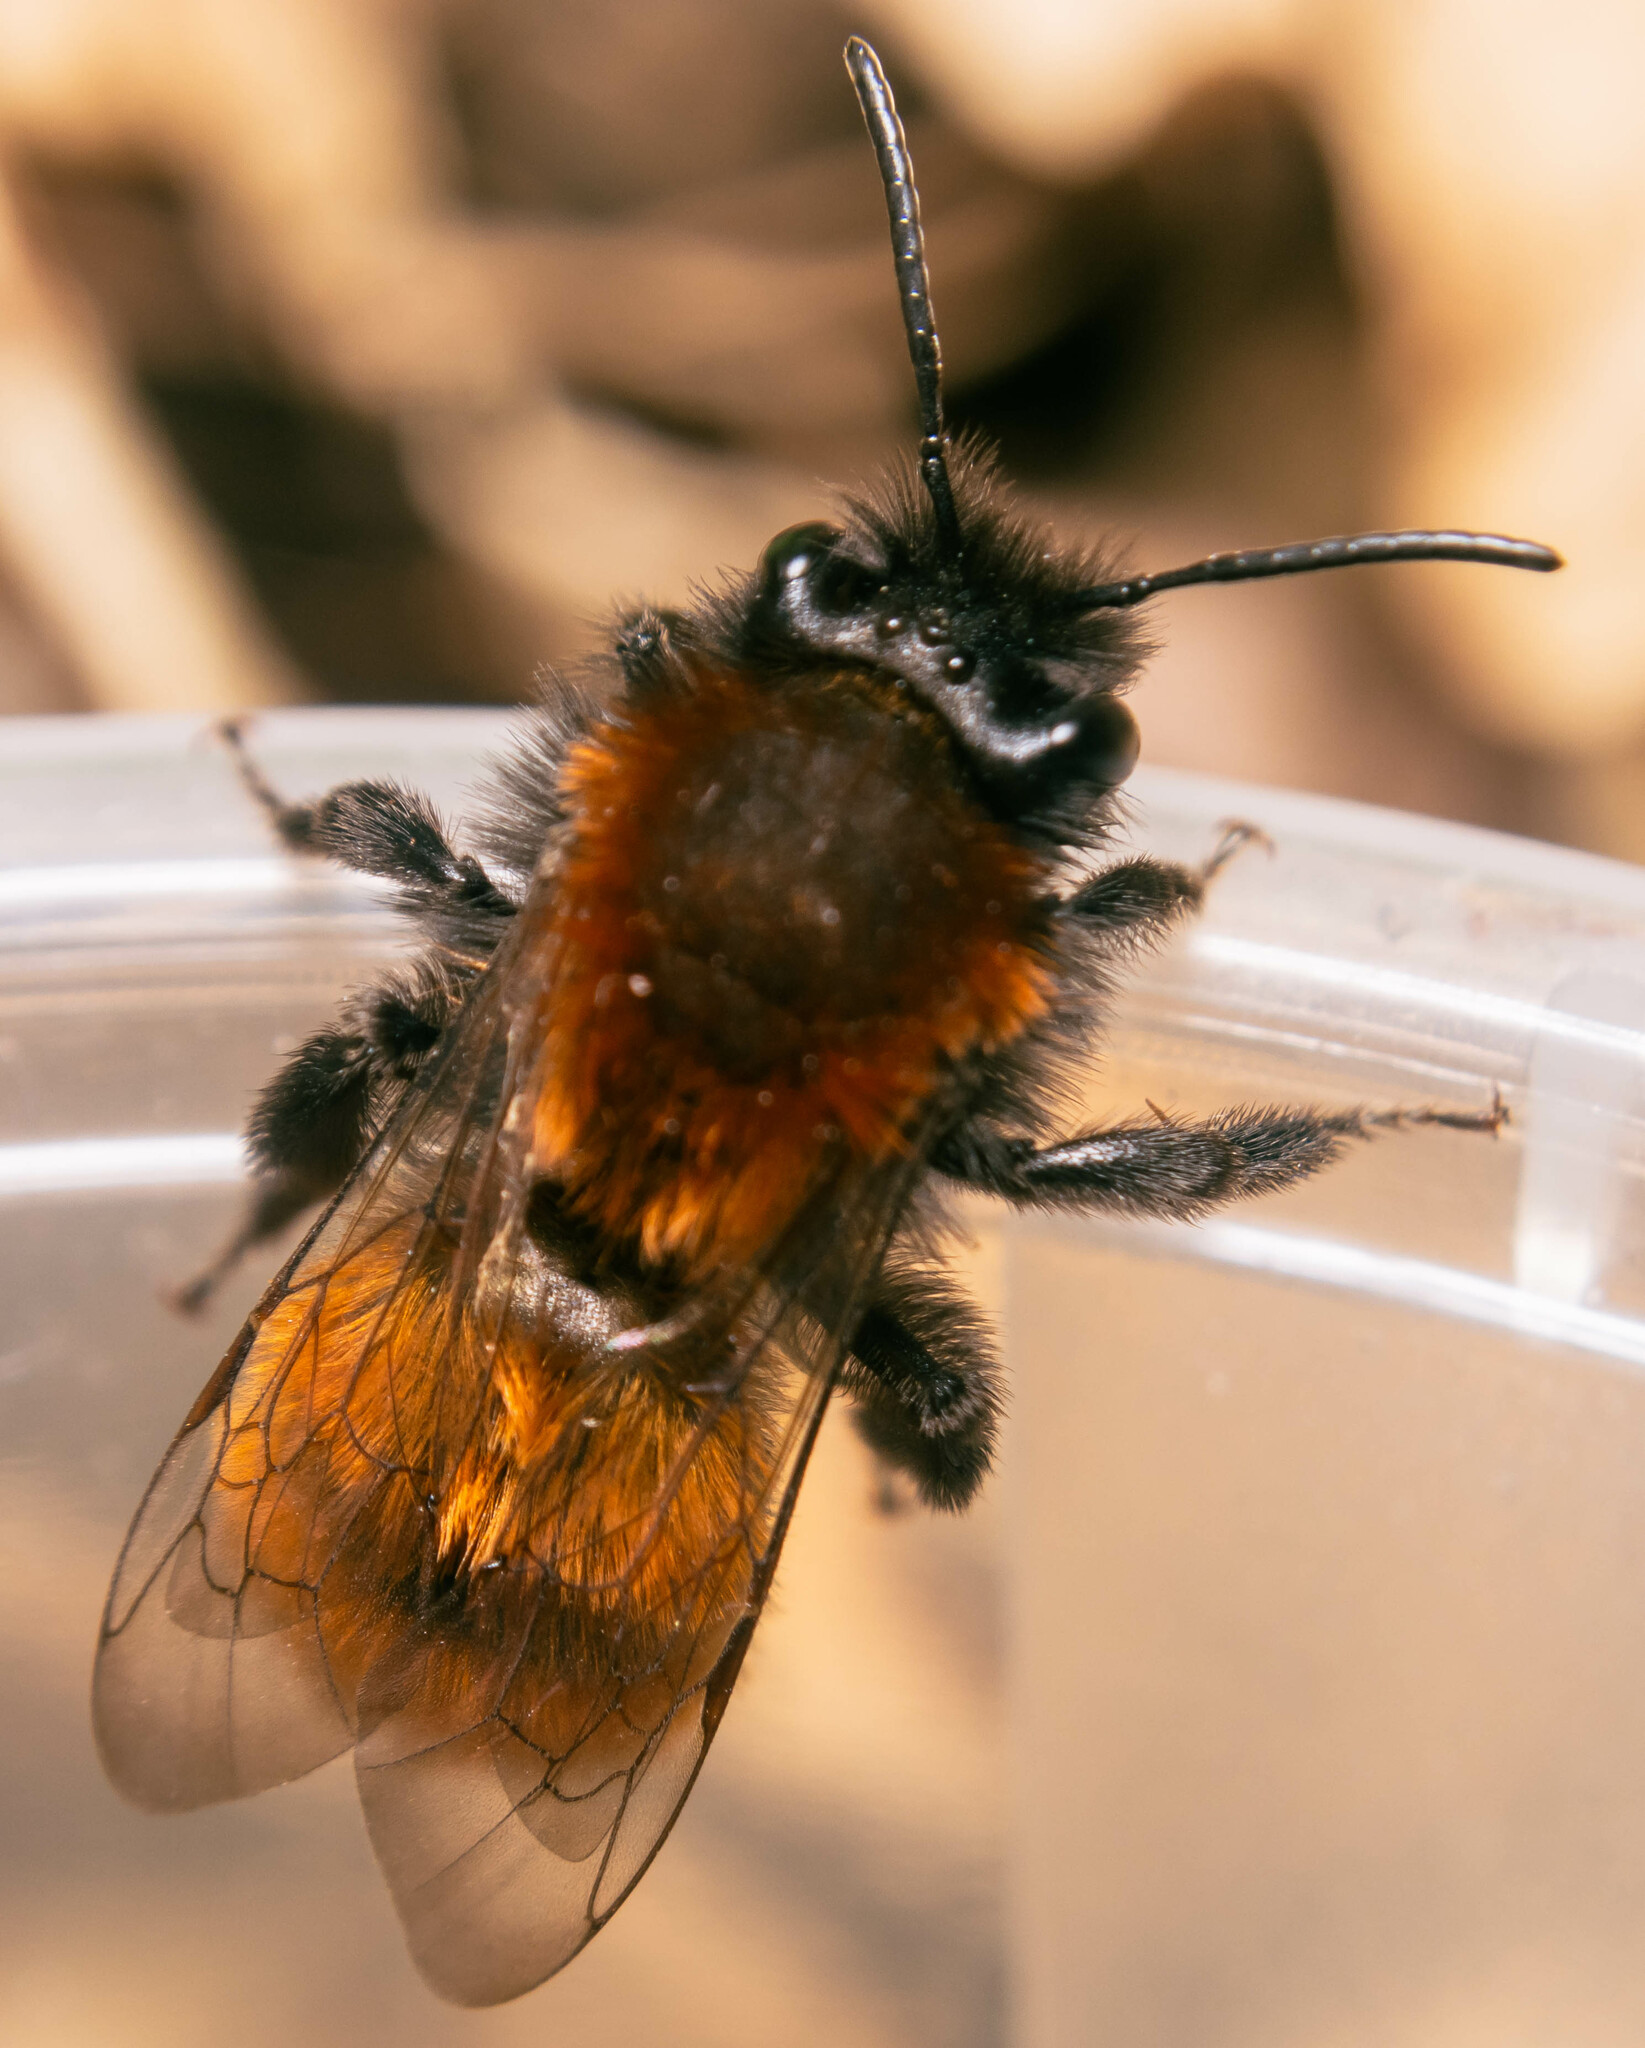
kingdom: Animalia
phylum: Arthropoda
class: Insecta
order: Hymenoptera
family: Andrenidae
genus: Andrena
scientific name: Andrena fulva
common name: Tawny mining bee
